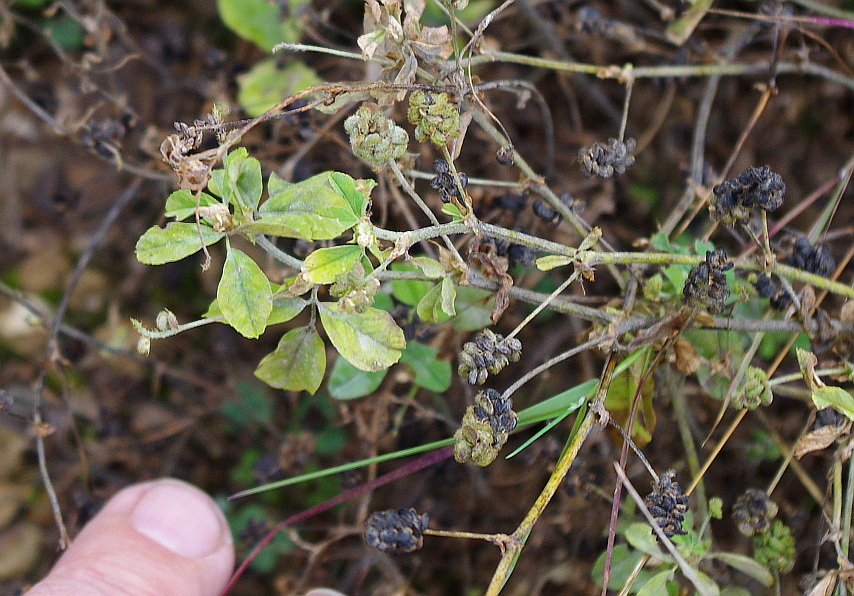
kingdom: Plantae
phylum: Tracheophyta
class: Magnoliopsida
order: Fabales
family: Fabaceae
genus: Medicago
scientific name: Medicago lupulina
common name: Black medick
